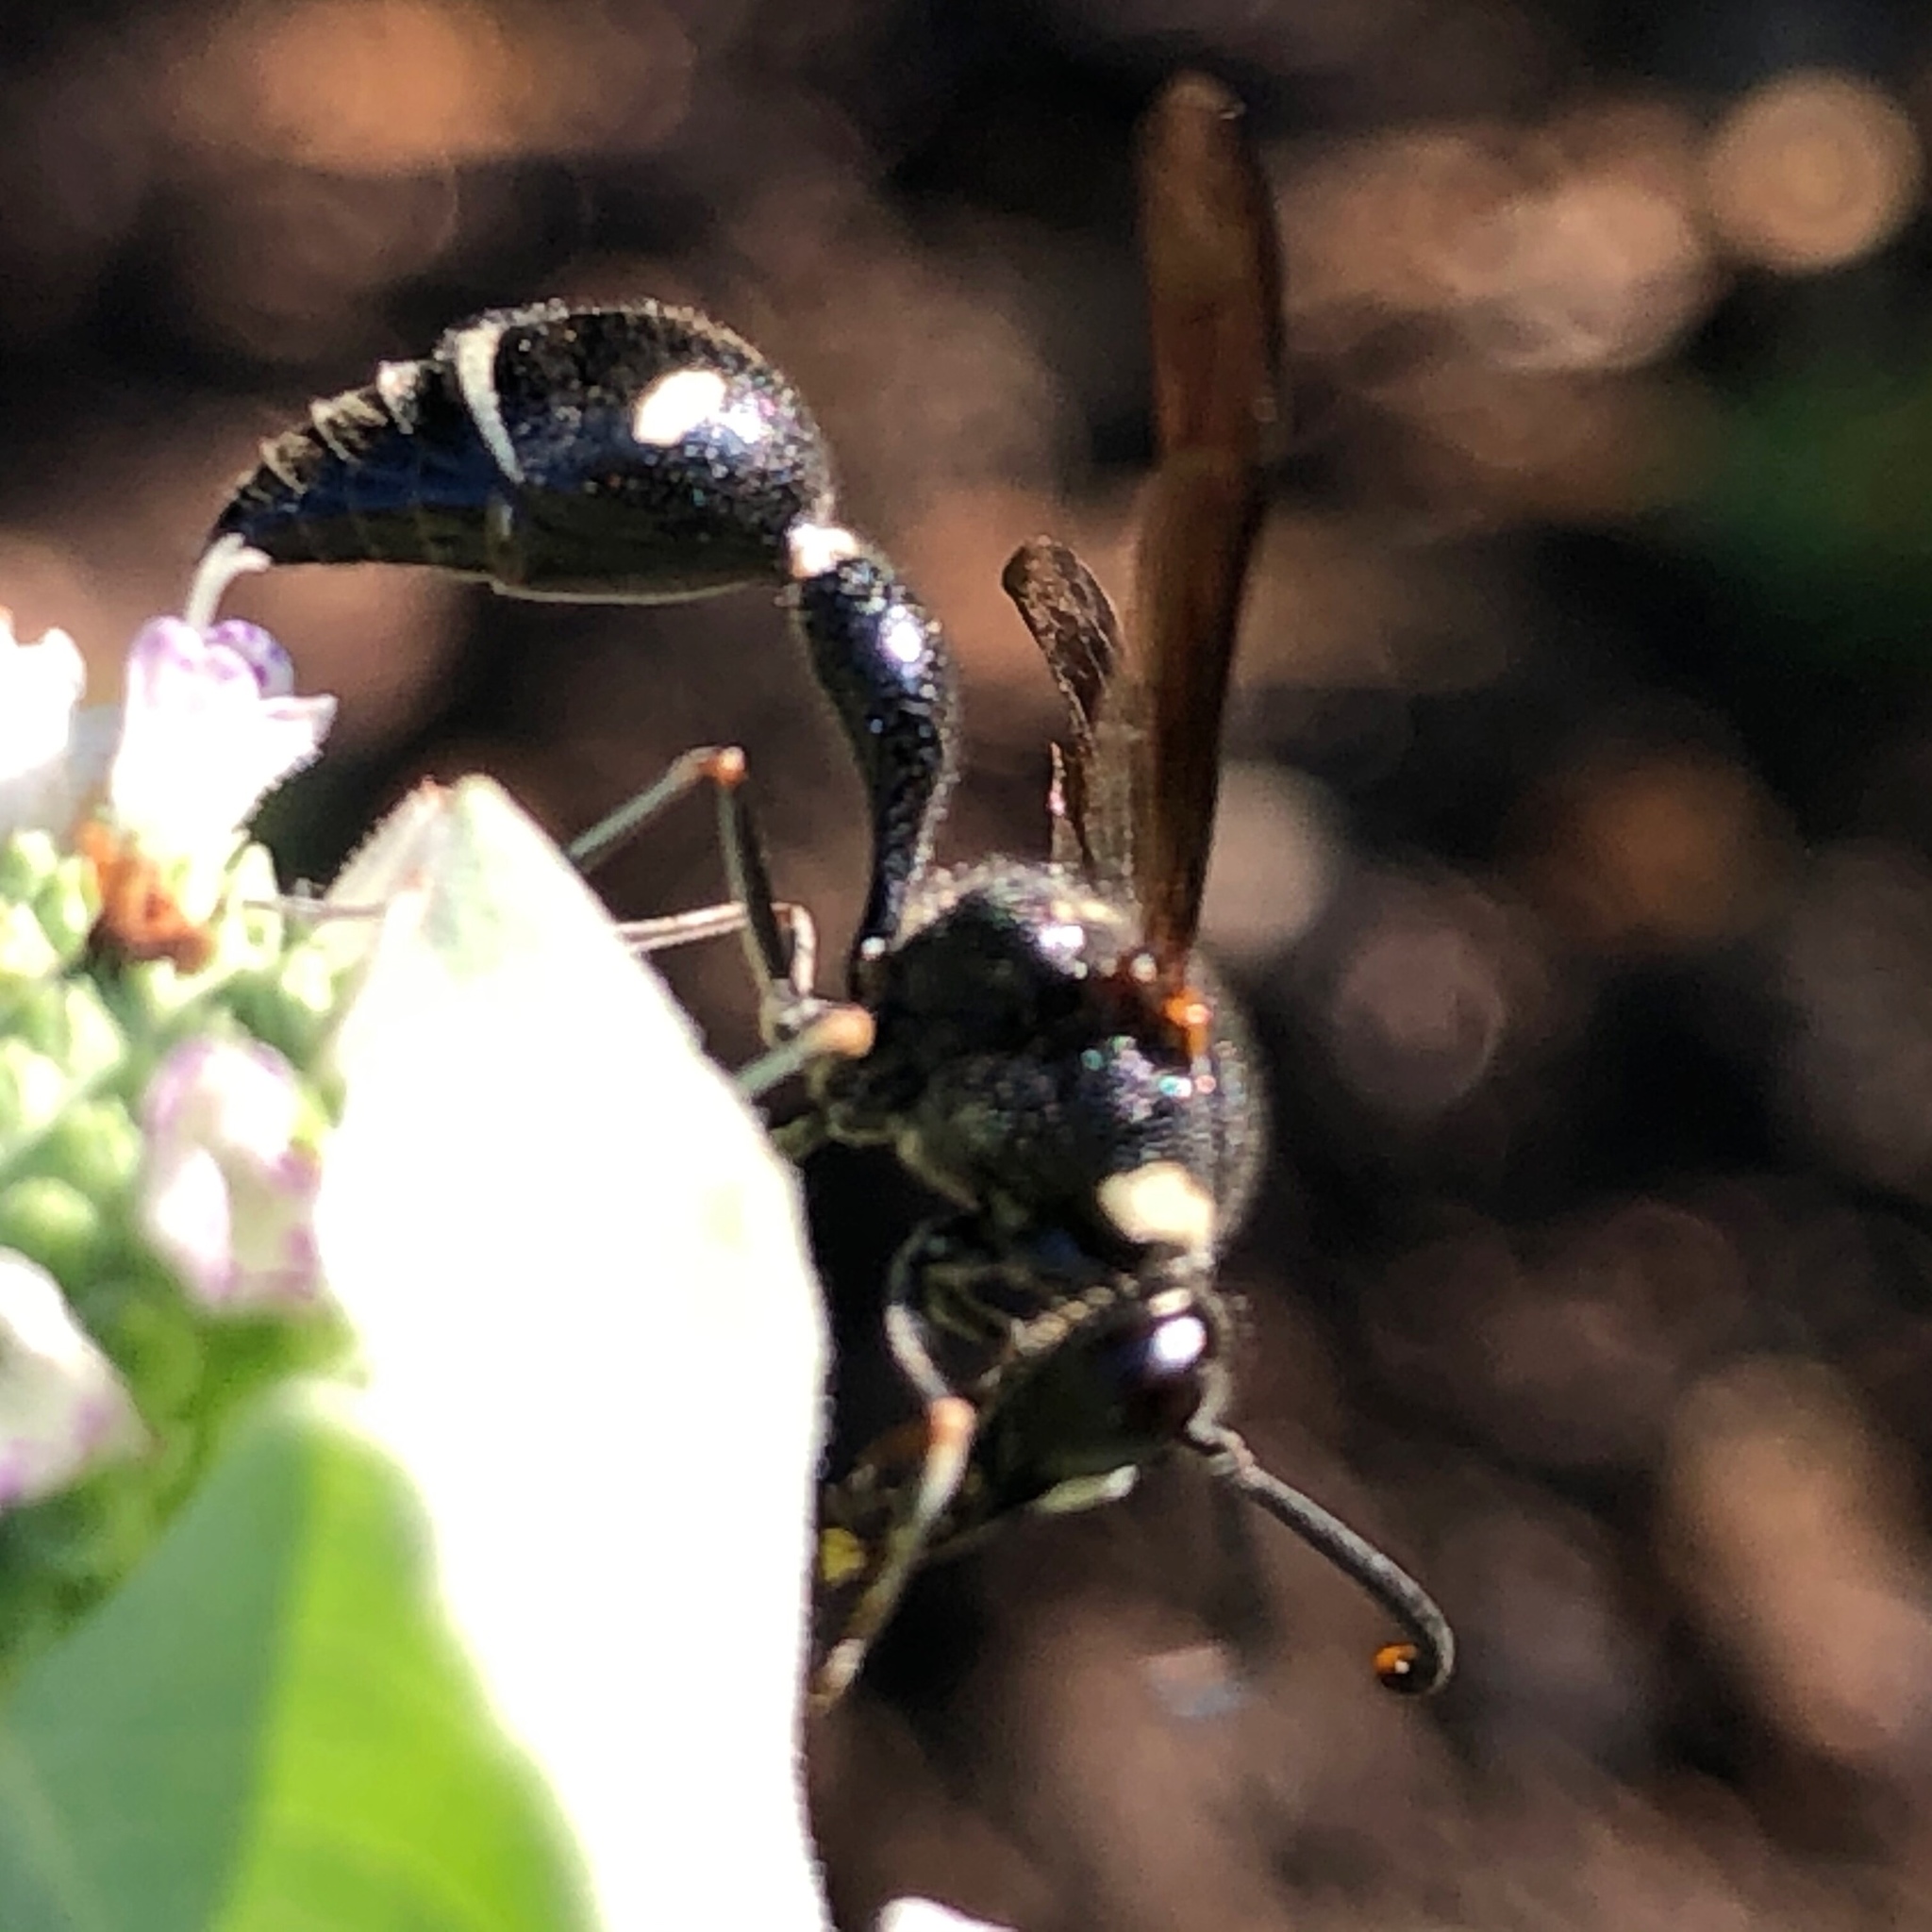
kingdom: Animalia
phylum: Arthropoda
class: Insecta
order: Hymenoptera
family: Vespidae
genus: Eumenes
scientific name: Eumenes fraternus
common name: Fraternal potter wasp
